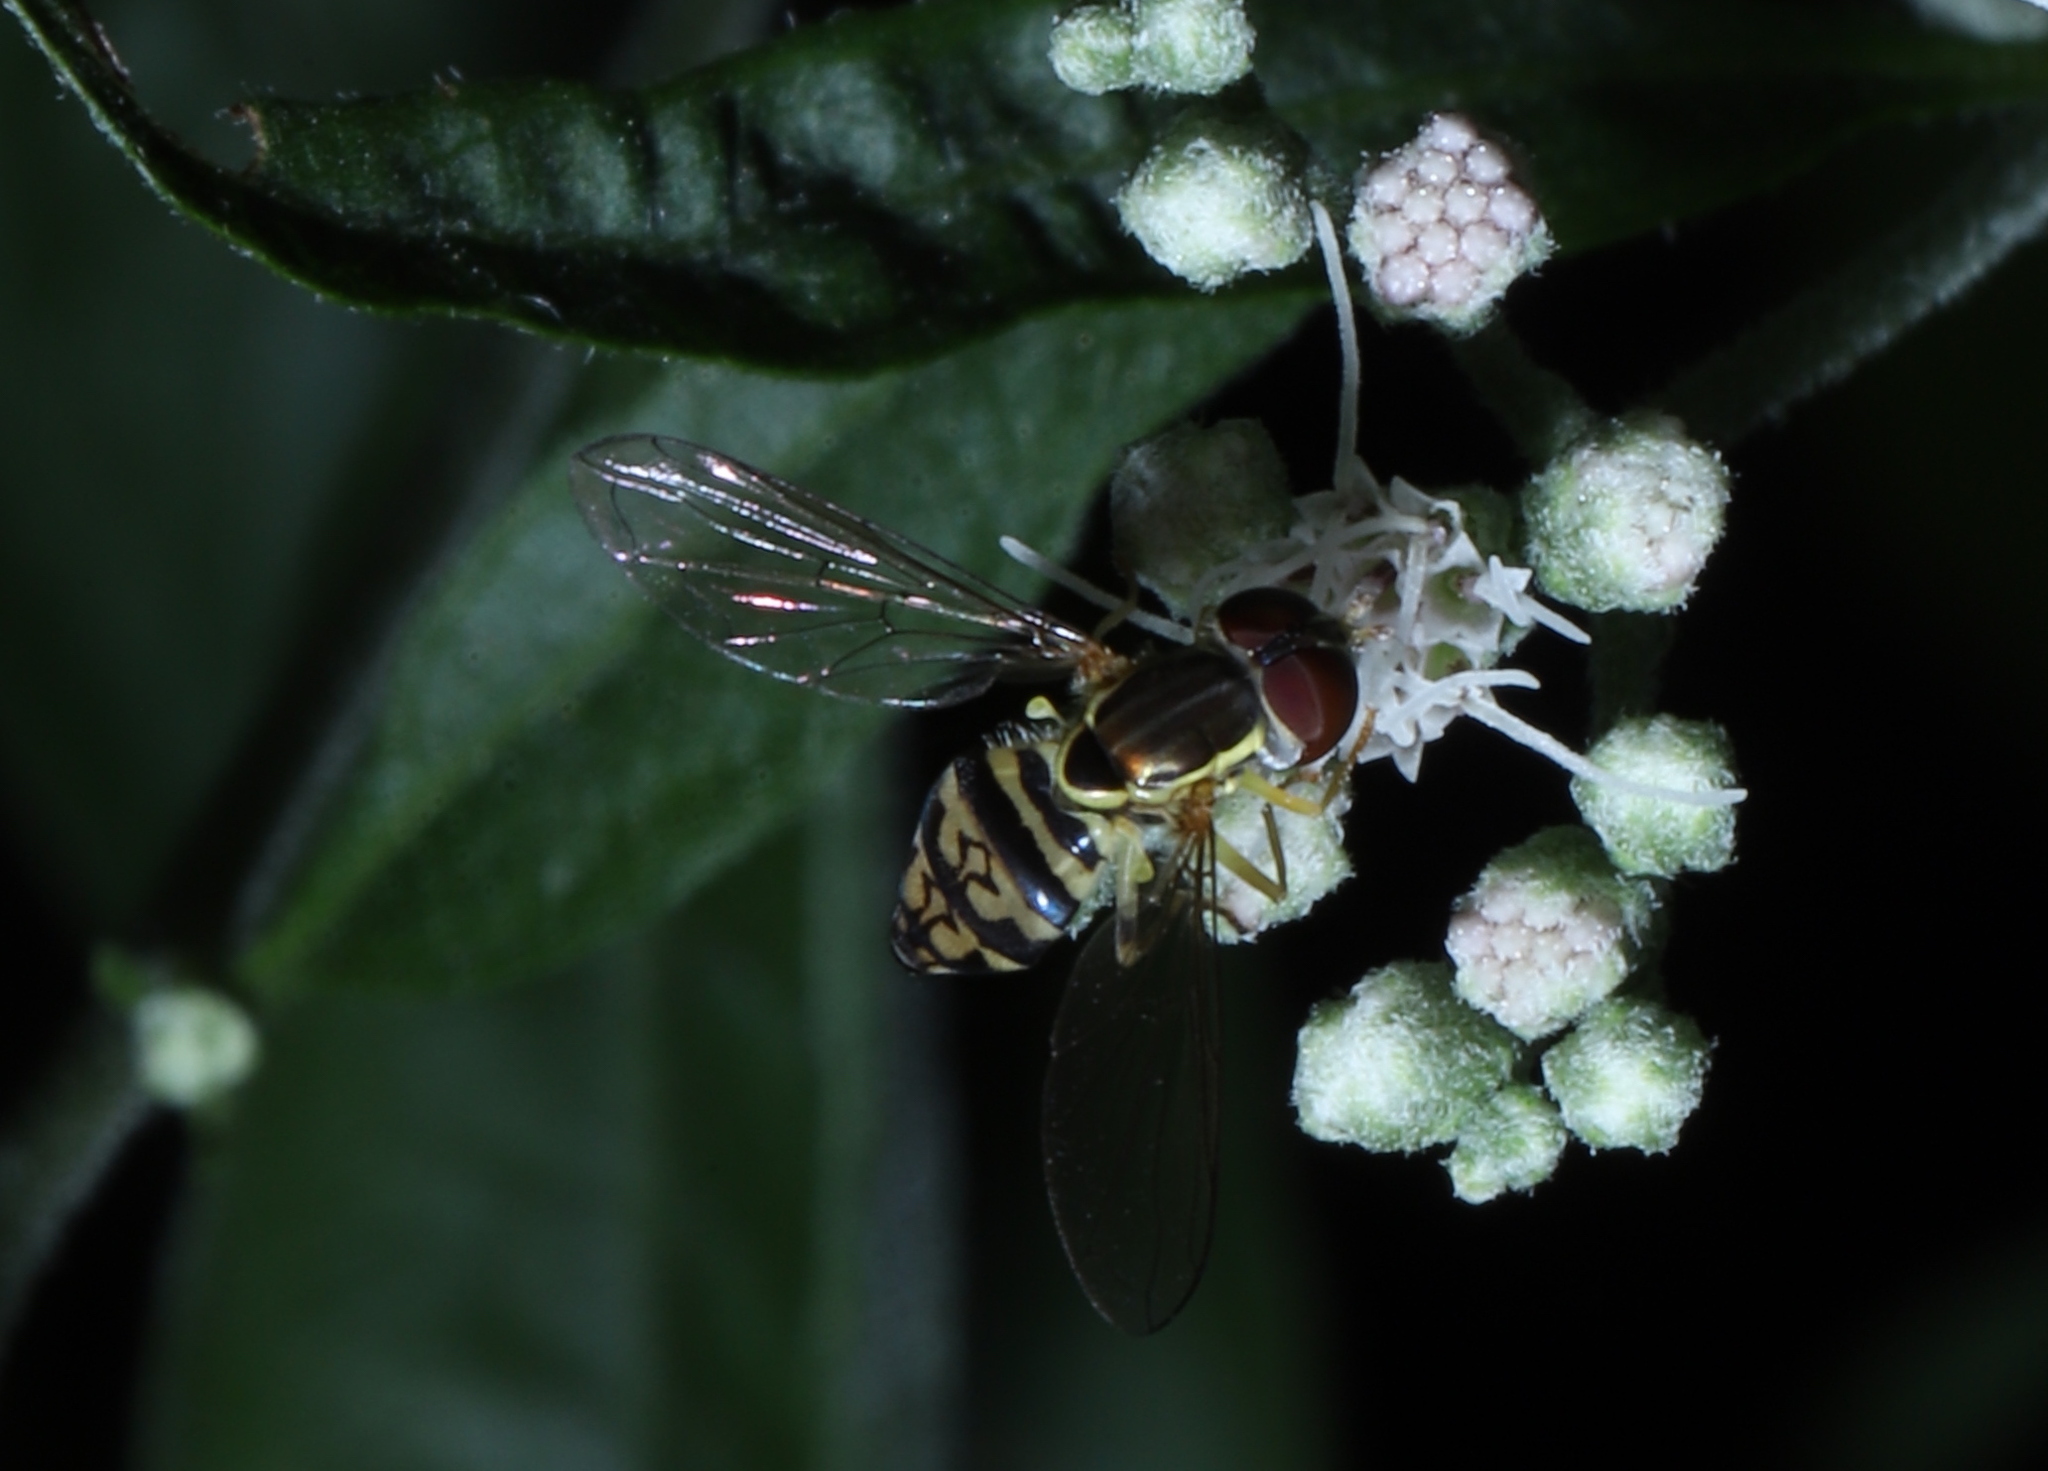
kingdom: Animalia
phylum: Arthropoda
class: Insecta
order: Diptera
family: Syrphidae
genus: Toxomerus
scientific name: Toxomerus geminatus
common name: Eastern calligrapher
